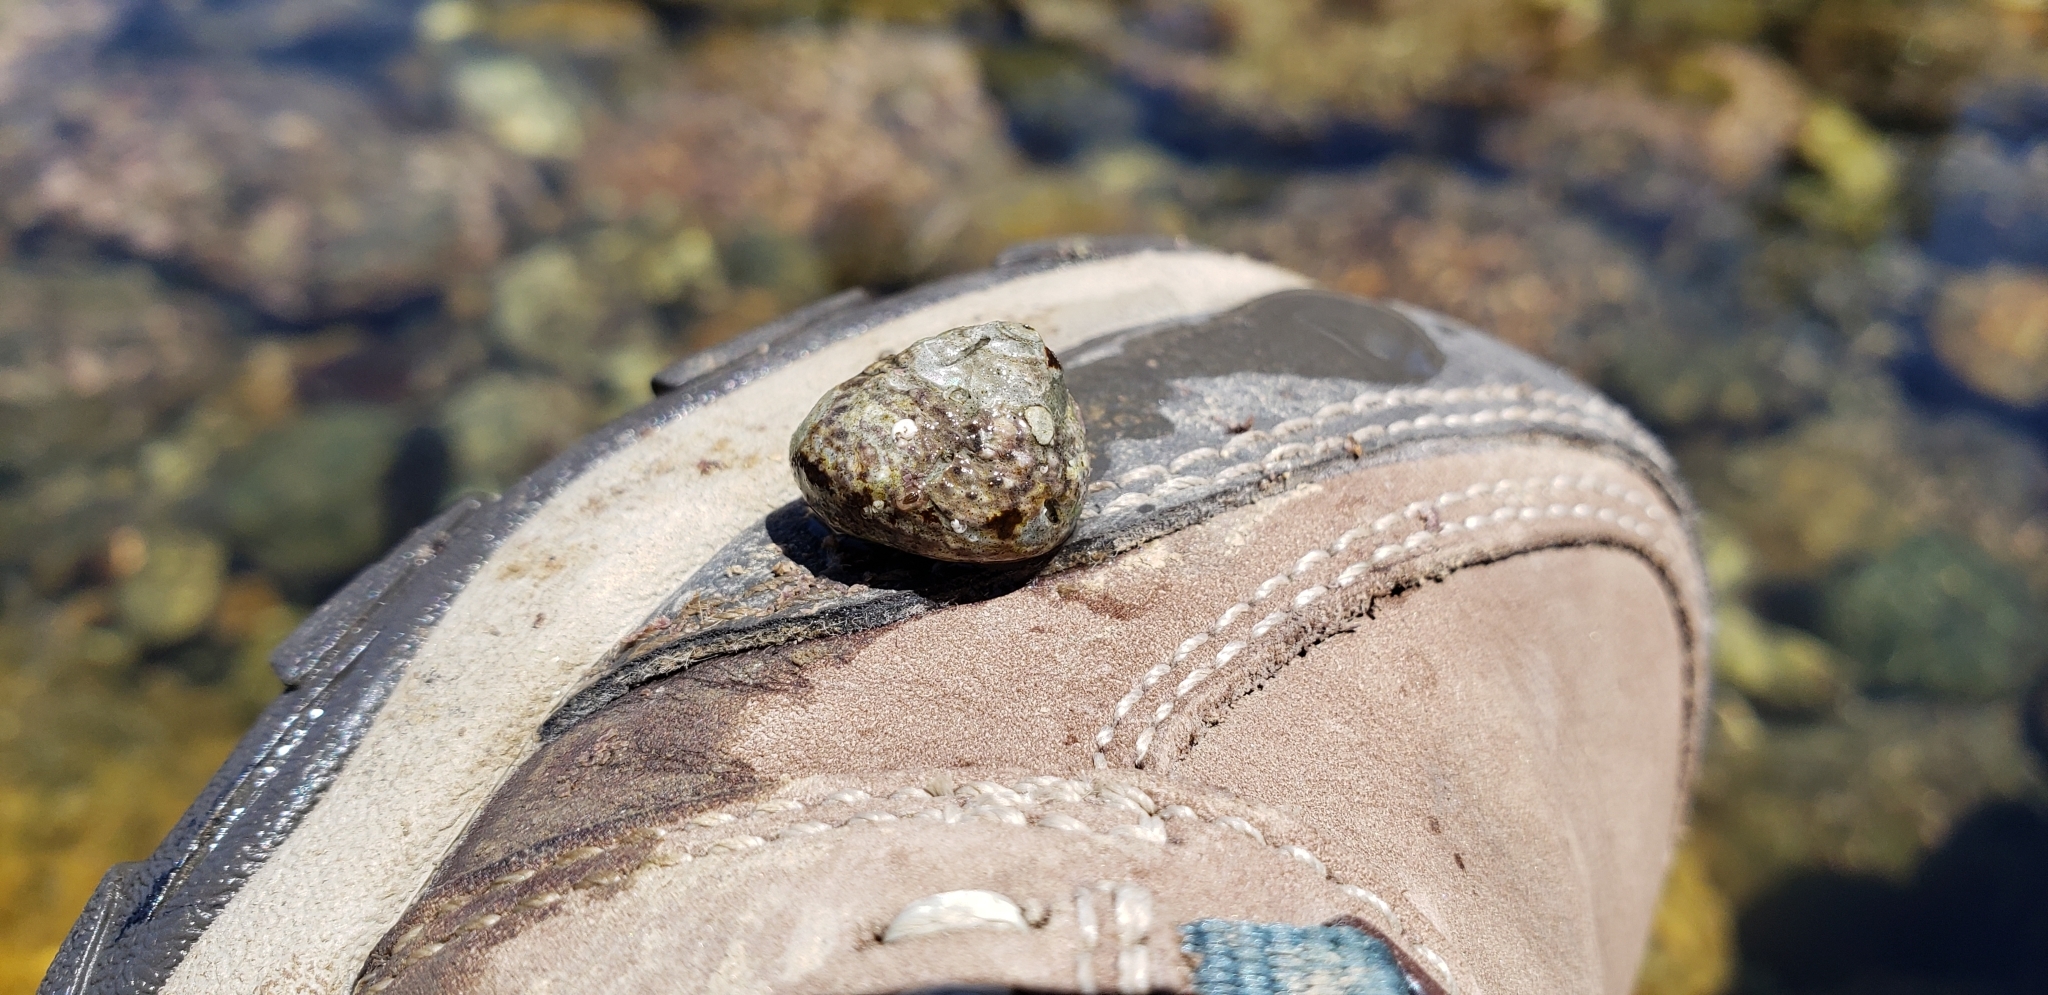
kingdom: Animalia
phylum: Mollusca
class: Gastropoda
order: Trochida
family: Tegulidae
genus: Tegula
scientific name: Tegula eiseni
